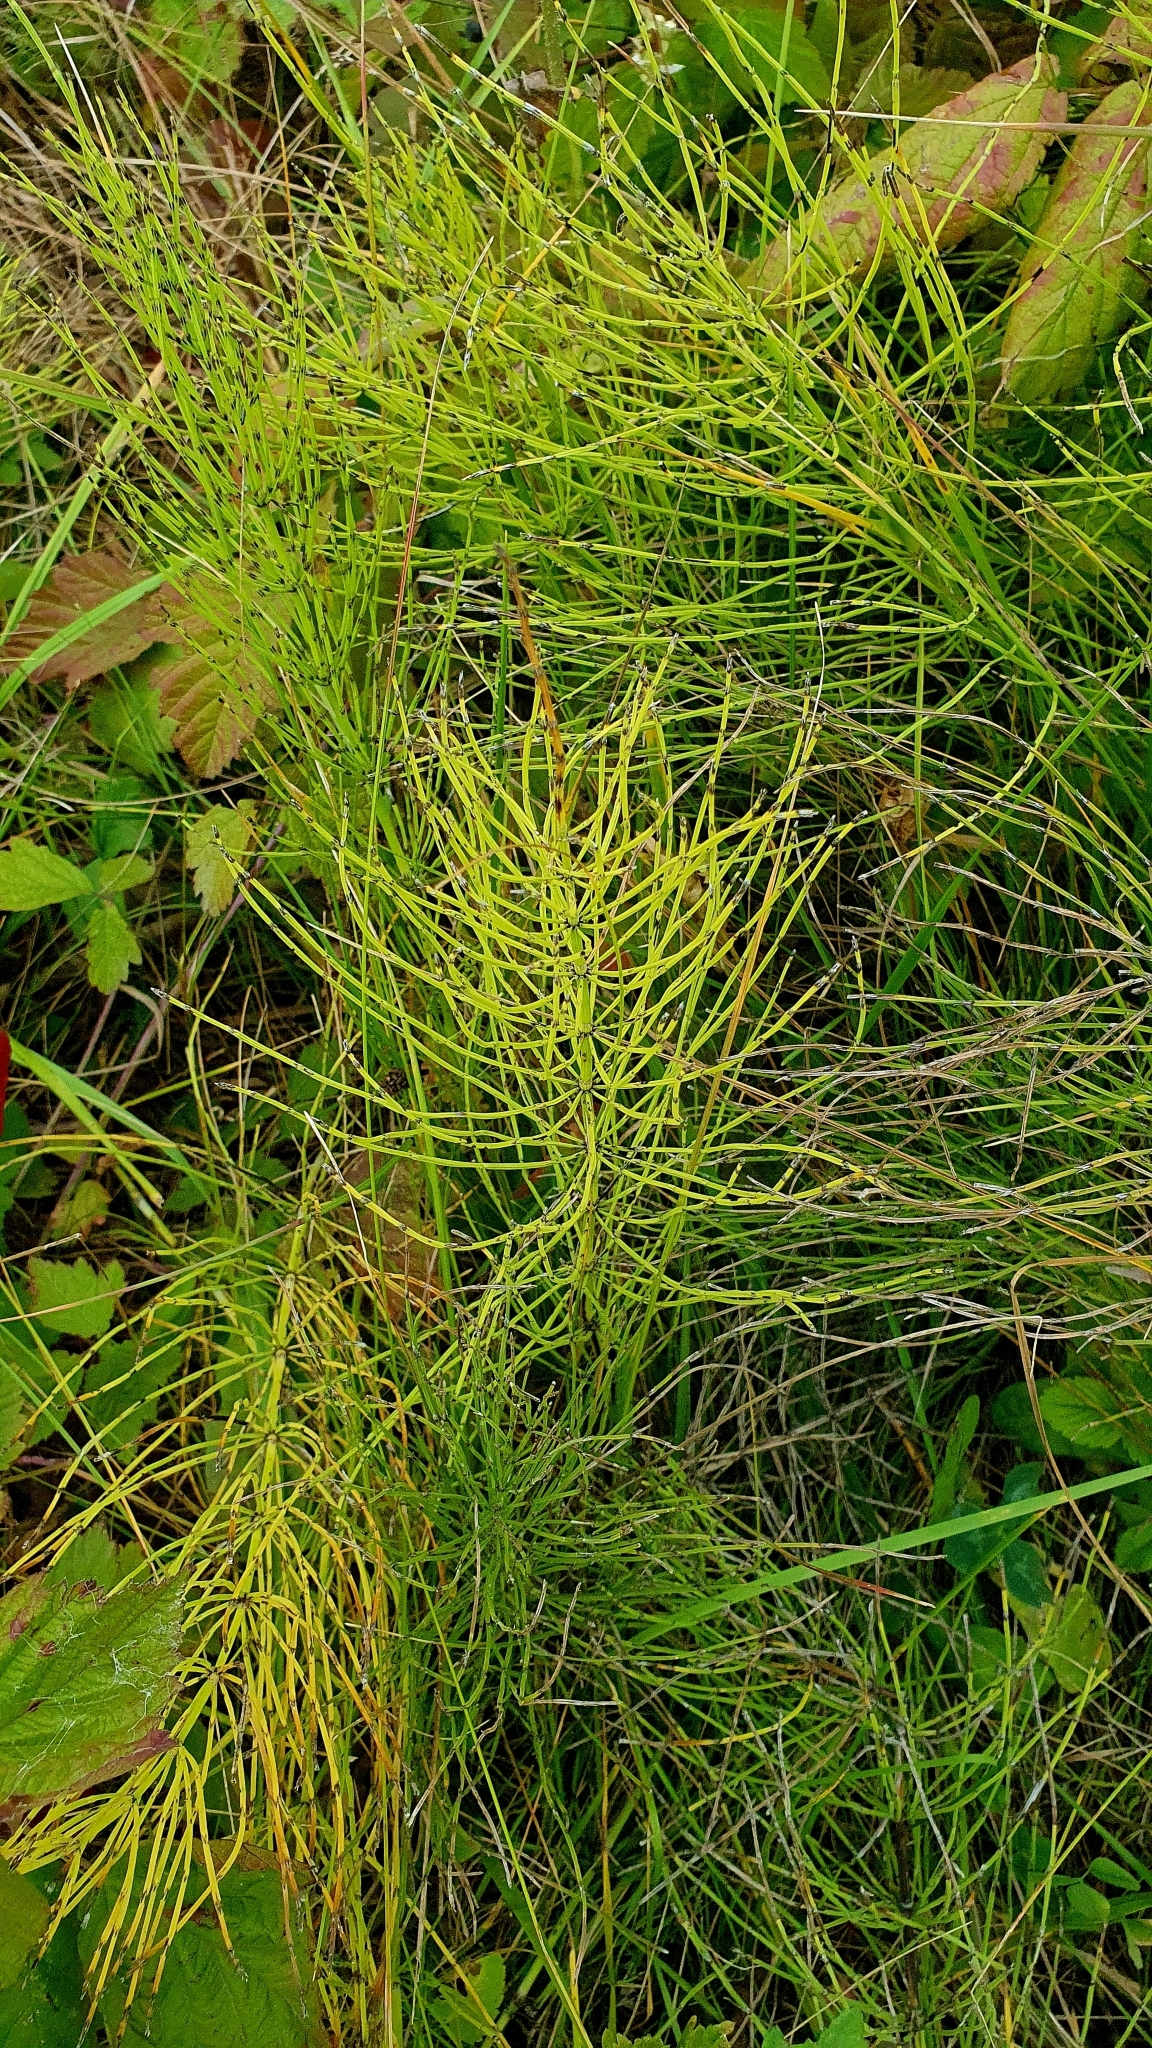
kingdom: Plantae
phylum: Tracheophyta
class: Polypodiopsida
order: Equisetales
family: Equisetaceae
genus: Equisetum
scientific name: Equisetum arvense
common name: Field horsetail
